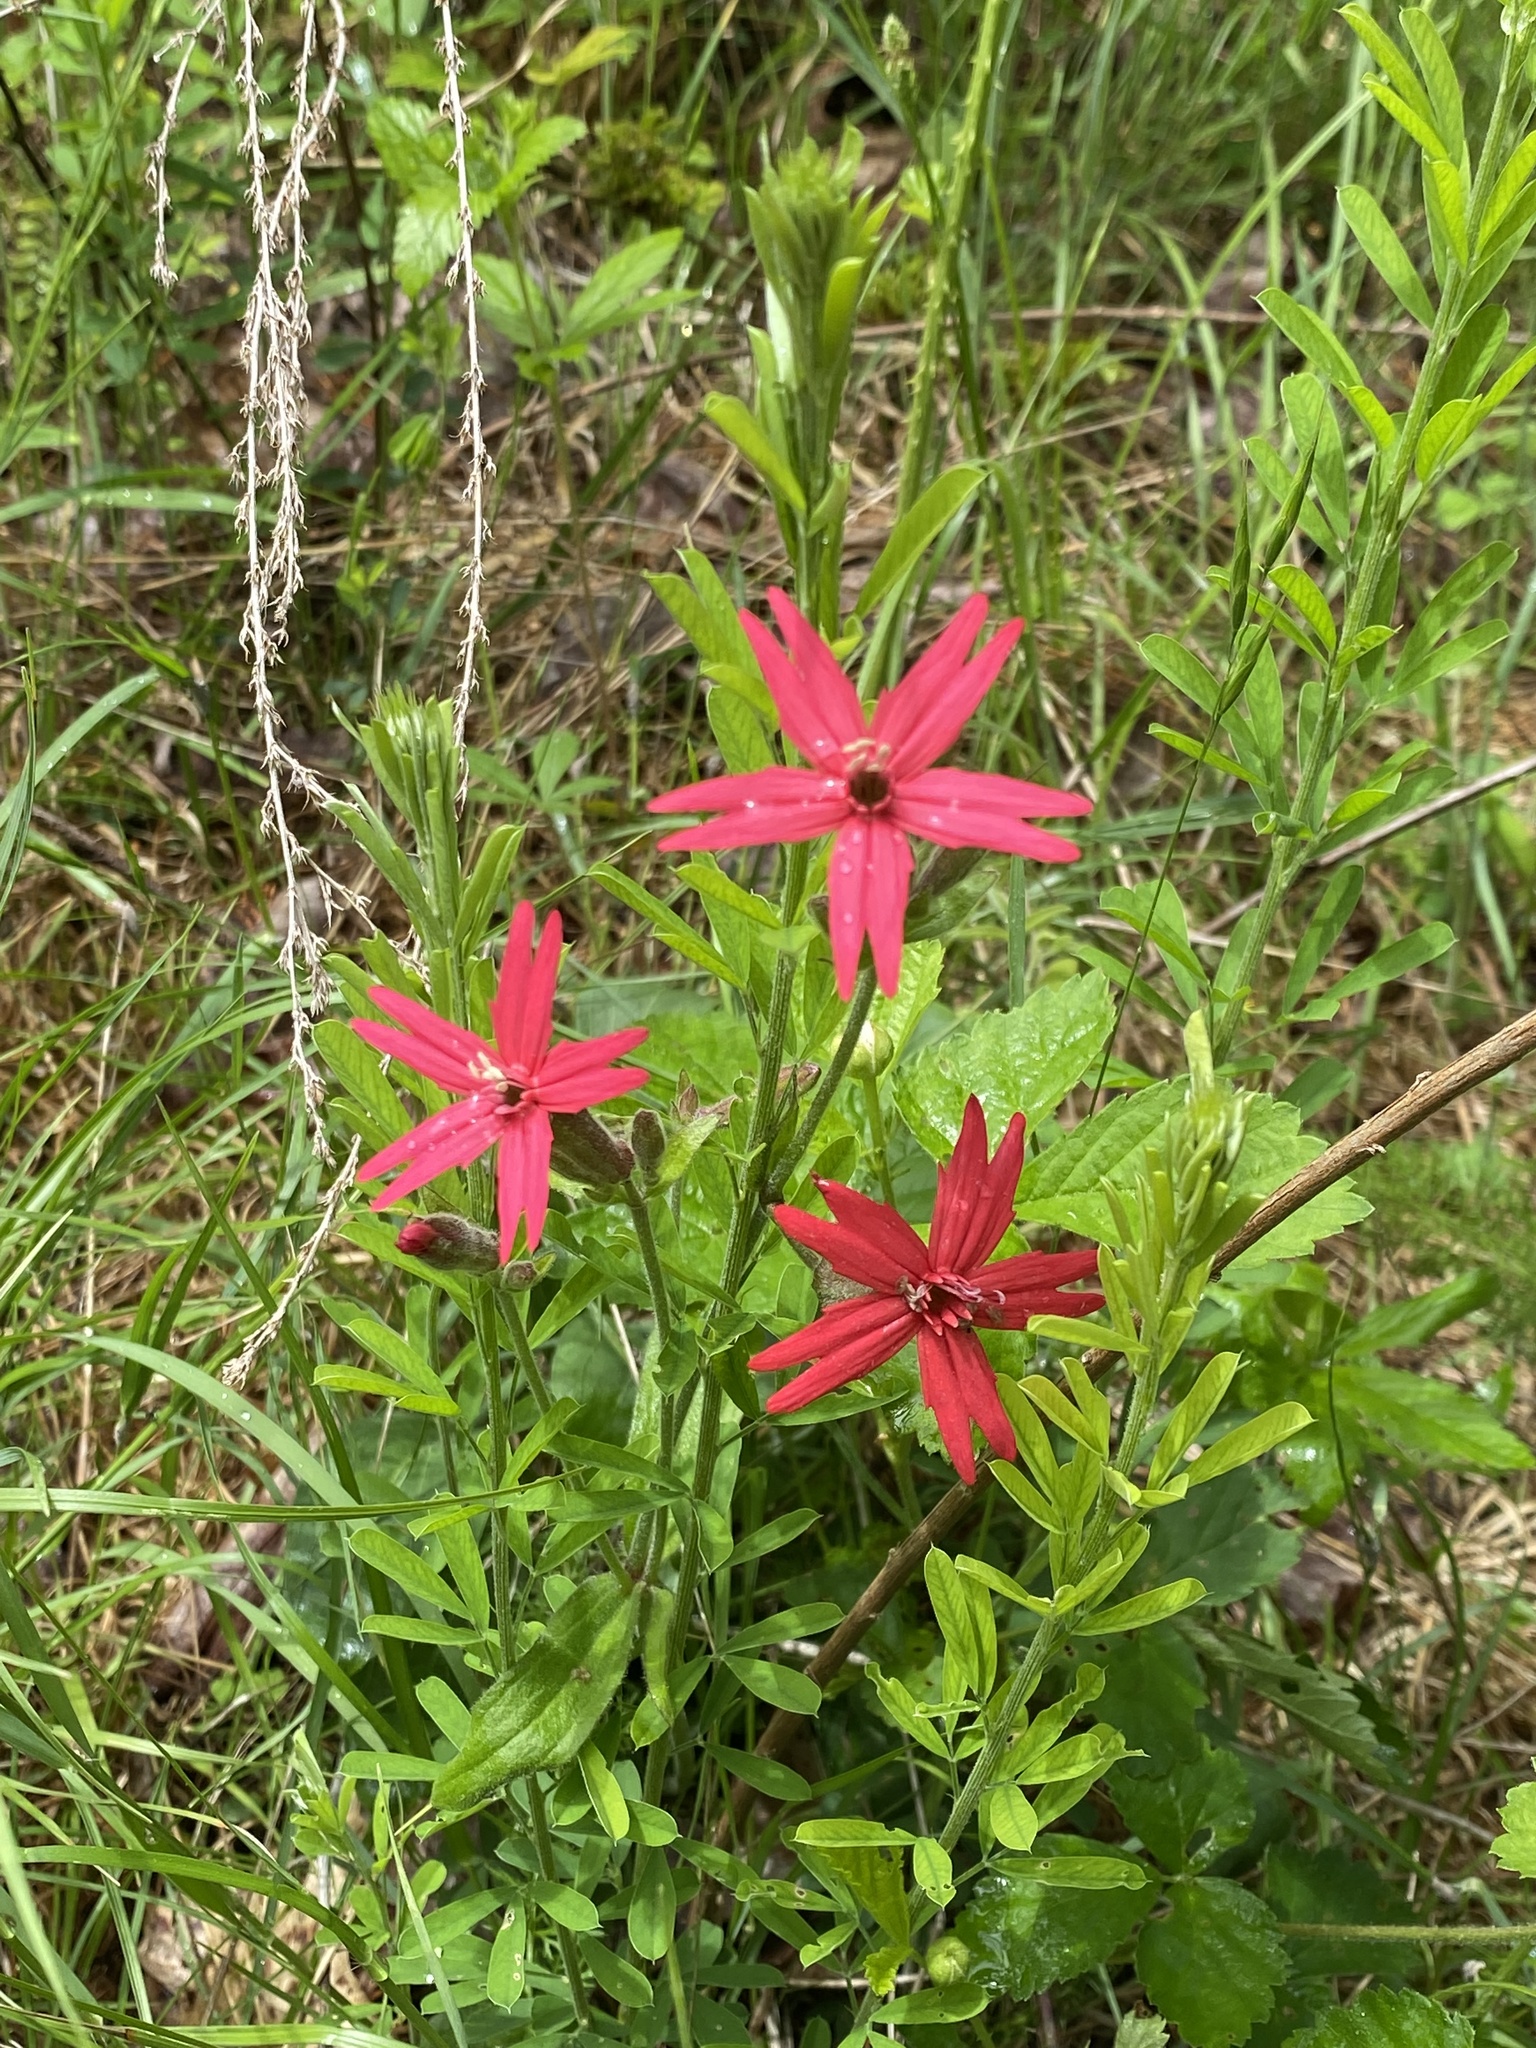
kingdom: Plantae
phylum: Tracheophyta
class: Magnoliopsida
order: Caryophyllales
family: Caryophyllaceae
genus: Silene
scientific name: Silene virginica
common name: Fire-pink
